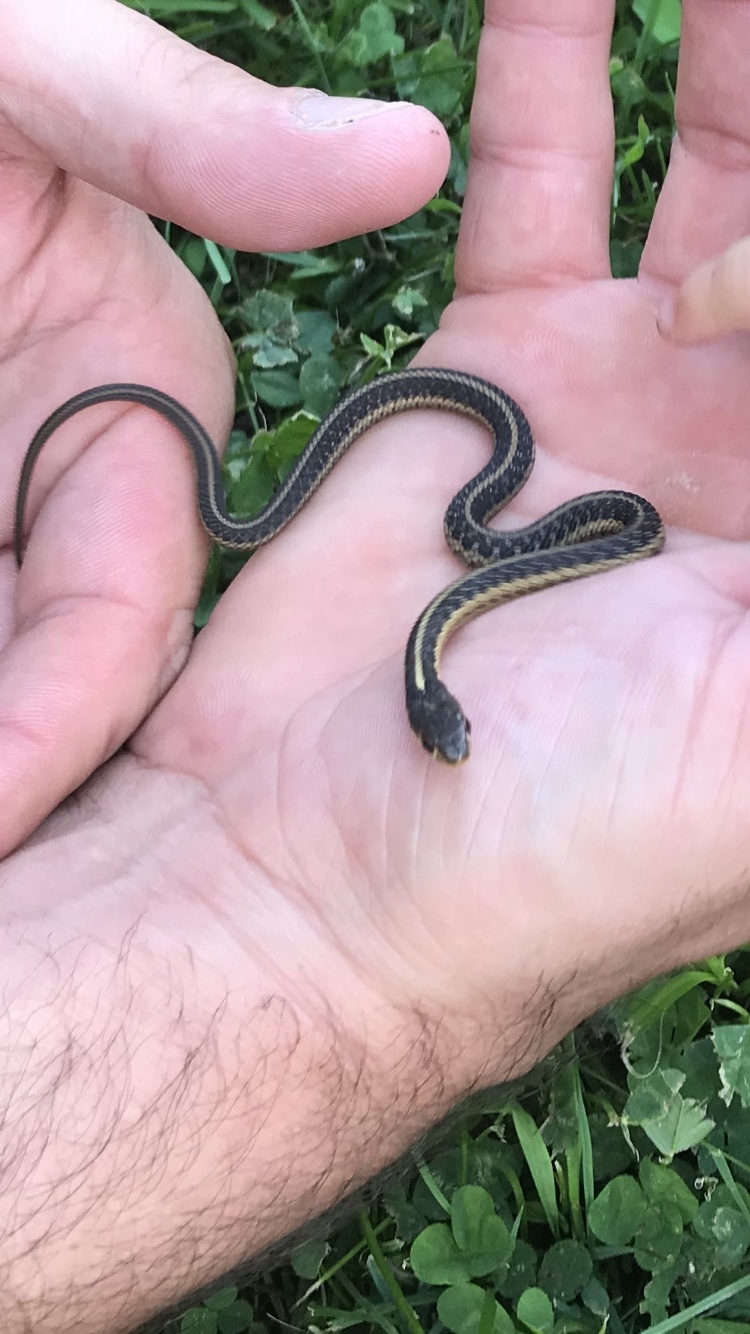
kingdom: Animalia
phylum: Chordata
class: Squamata
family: Colubridae
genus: Thamnophis
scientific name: Thamnophis sirtalis
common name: Common garter snake
